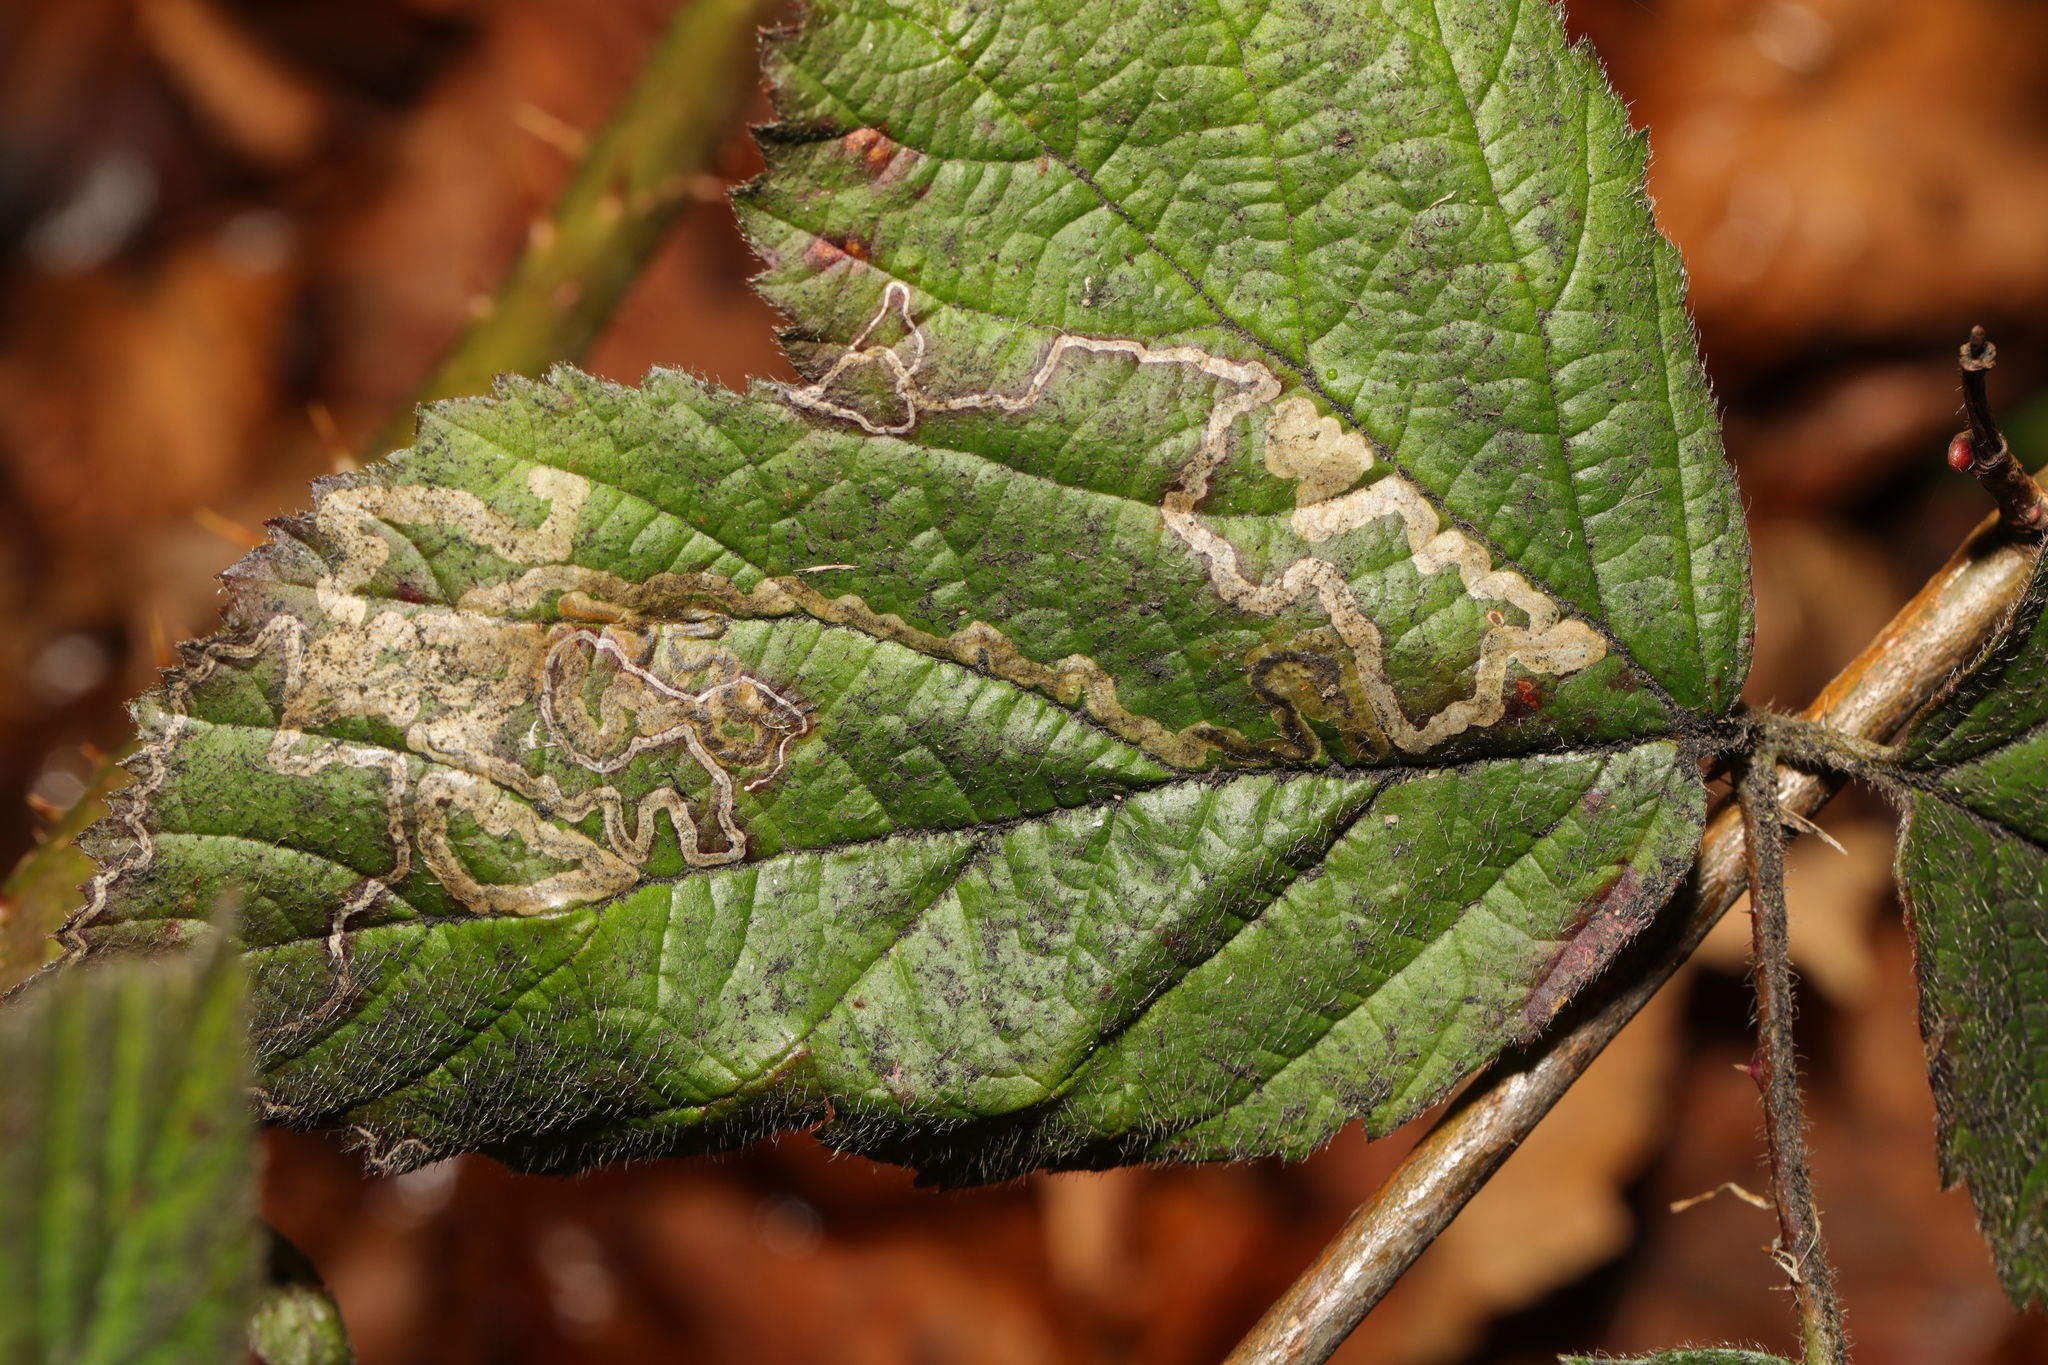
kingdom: Animalia
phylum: Arthropoda
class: Insecta
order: Lepidoptera
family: Nepticulidae
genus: Stigmella
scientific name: Stigmella aurella
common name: Golden pigmy
